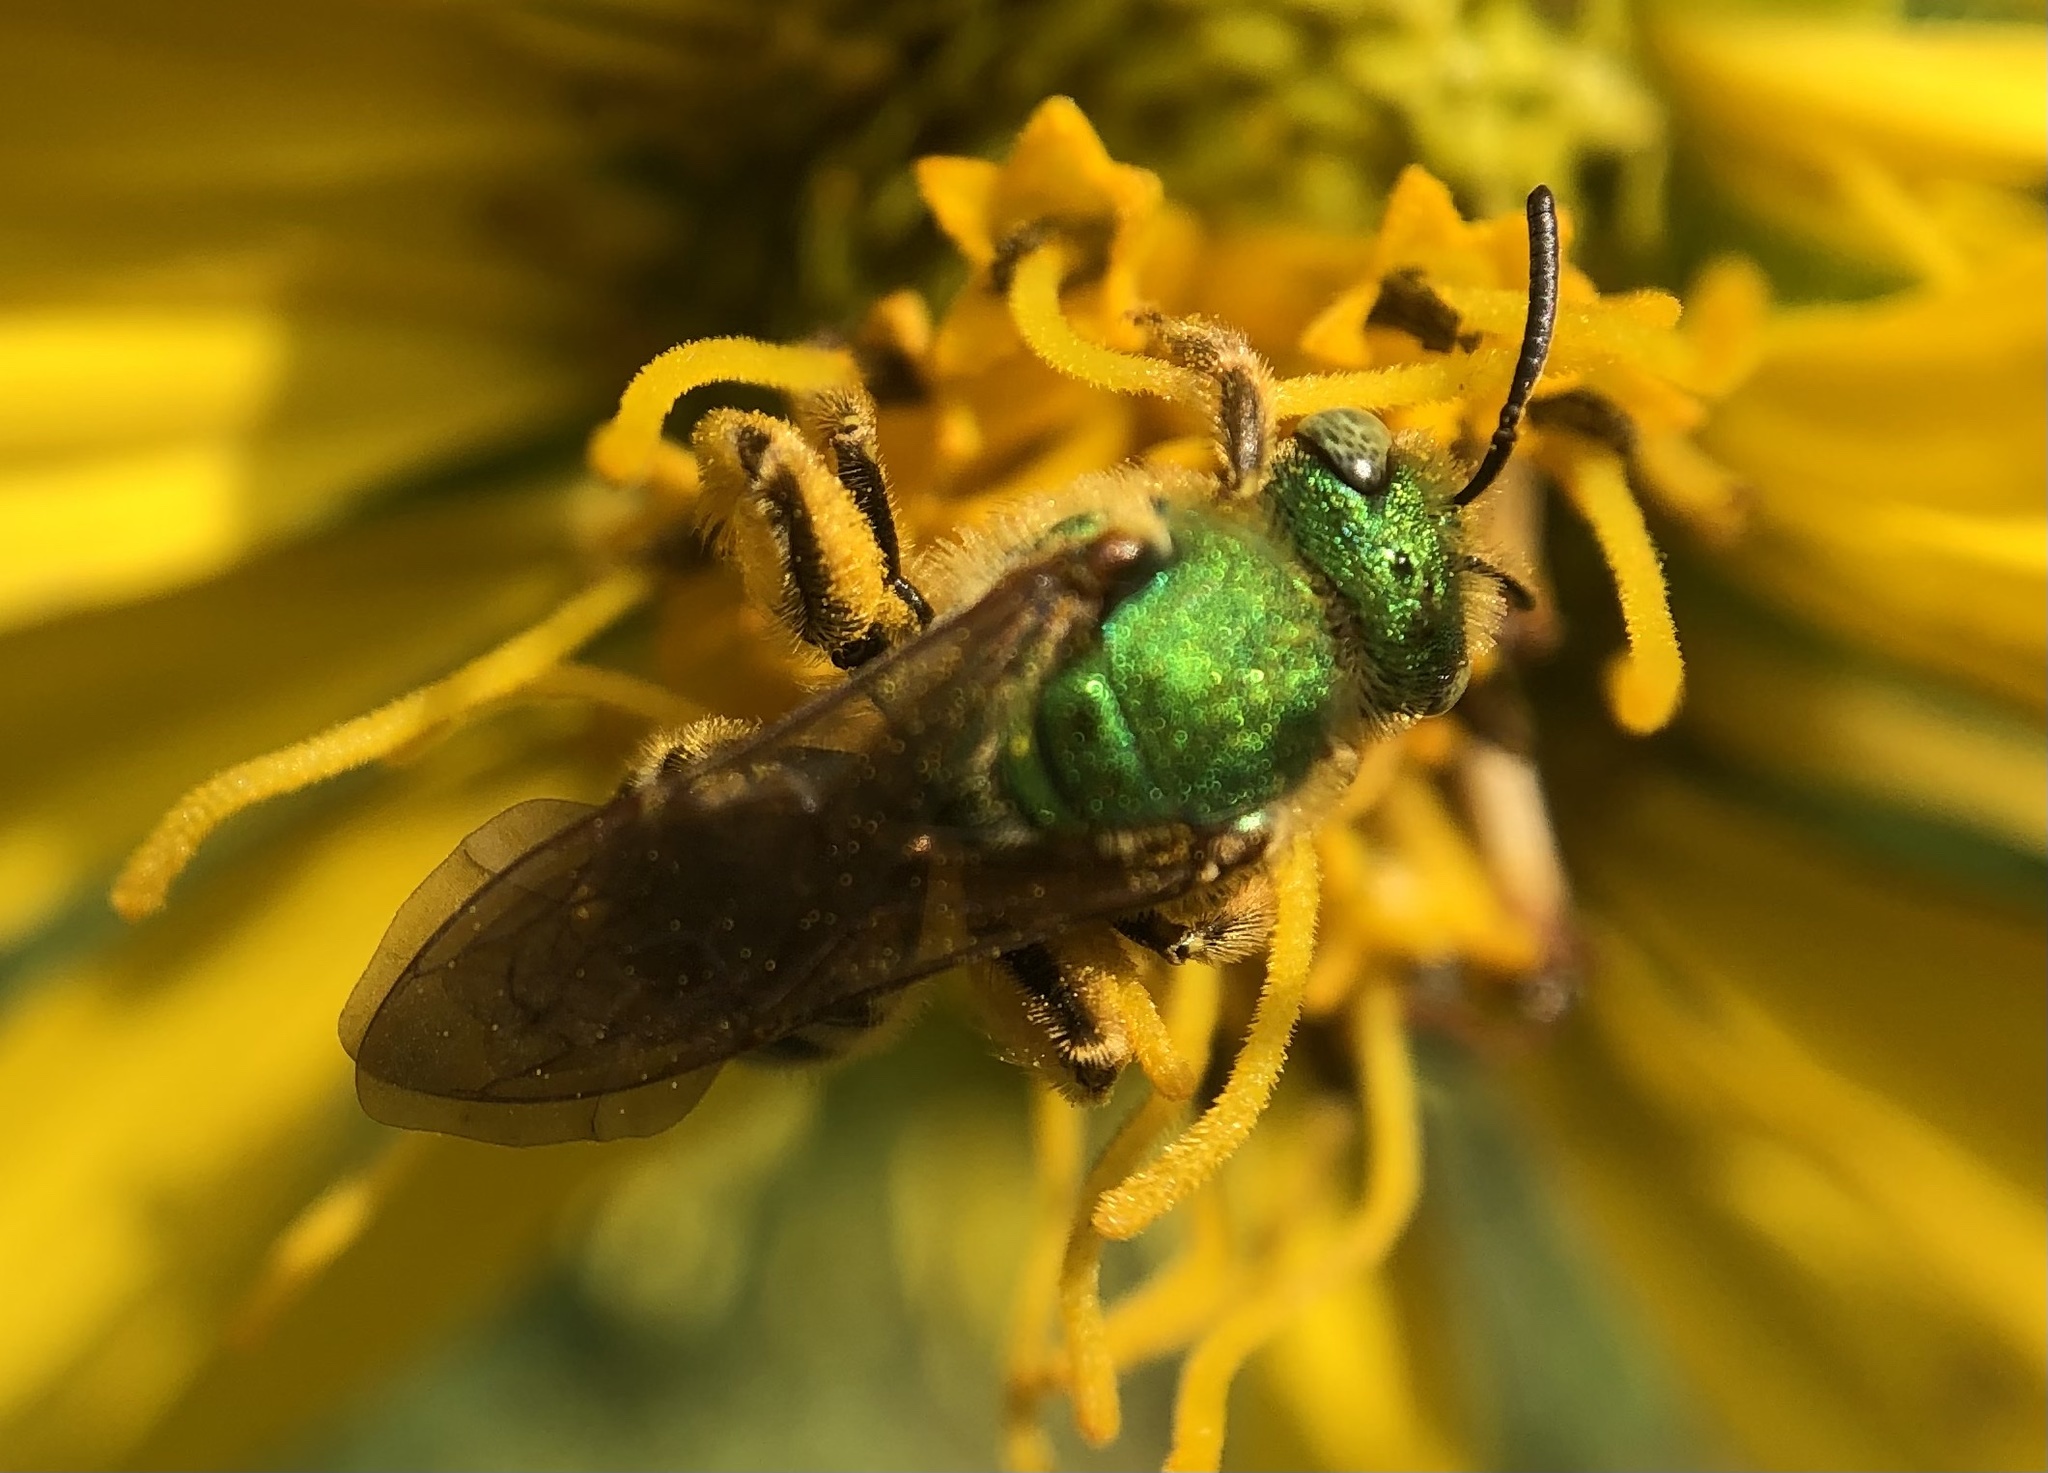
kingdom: Animalia
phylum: Arthropoda
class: Insecta
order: Hymenoptera
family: Halictidae
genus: Agapostemon
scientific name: Agapostemon virescens
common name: Bicolored striped sweat bee
